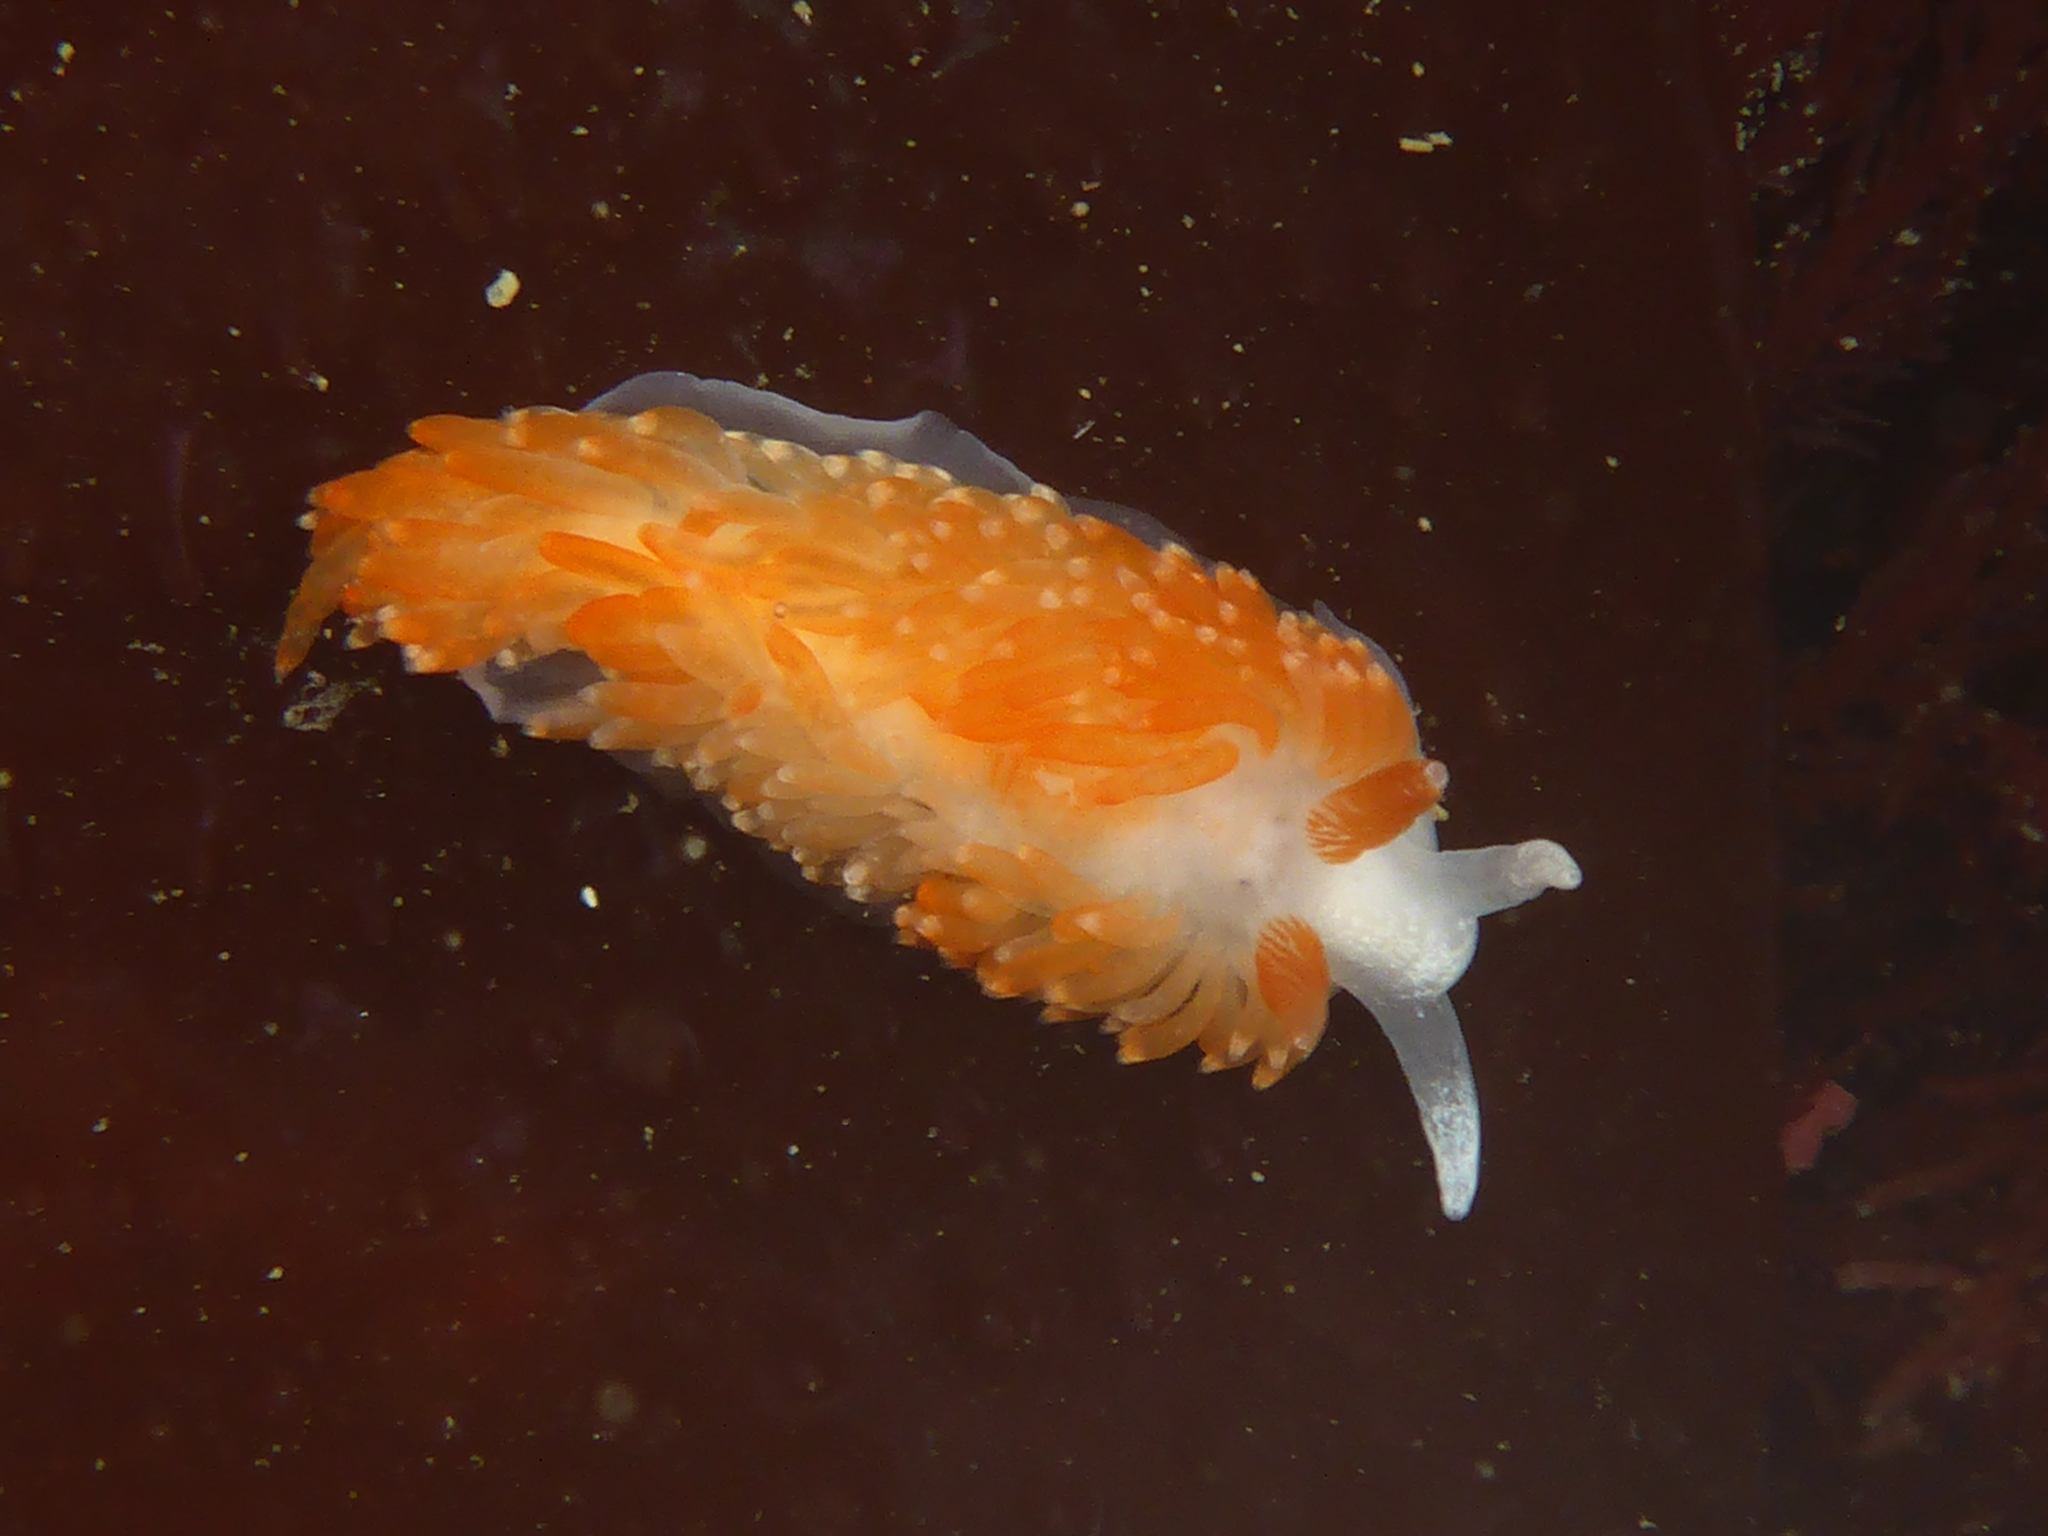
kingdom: Animalia
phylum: Mollusca
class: Gastropoda
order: Nudibranchia
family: Aeolidiidae
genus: Anteaeolidiella
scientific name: Anteaeolidiella oliviae
